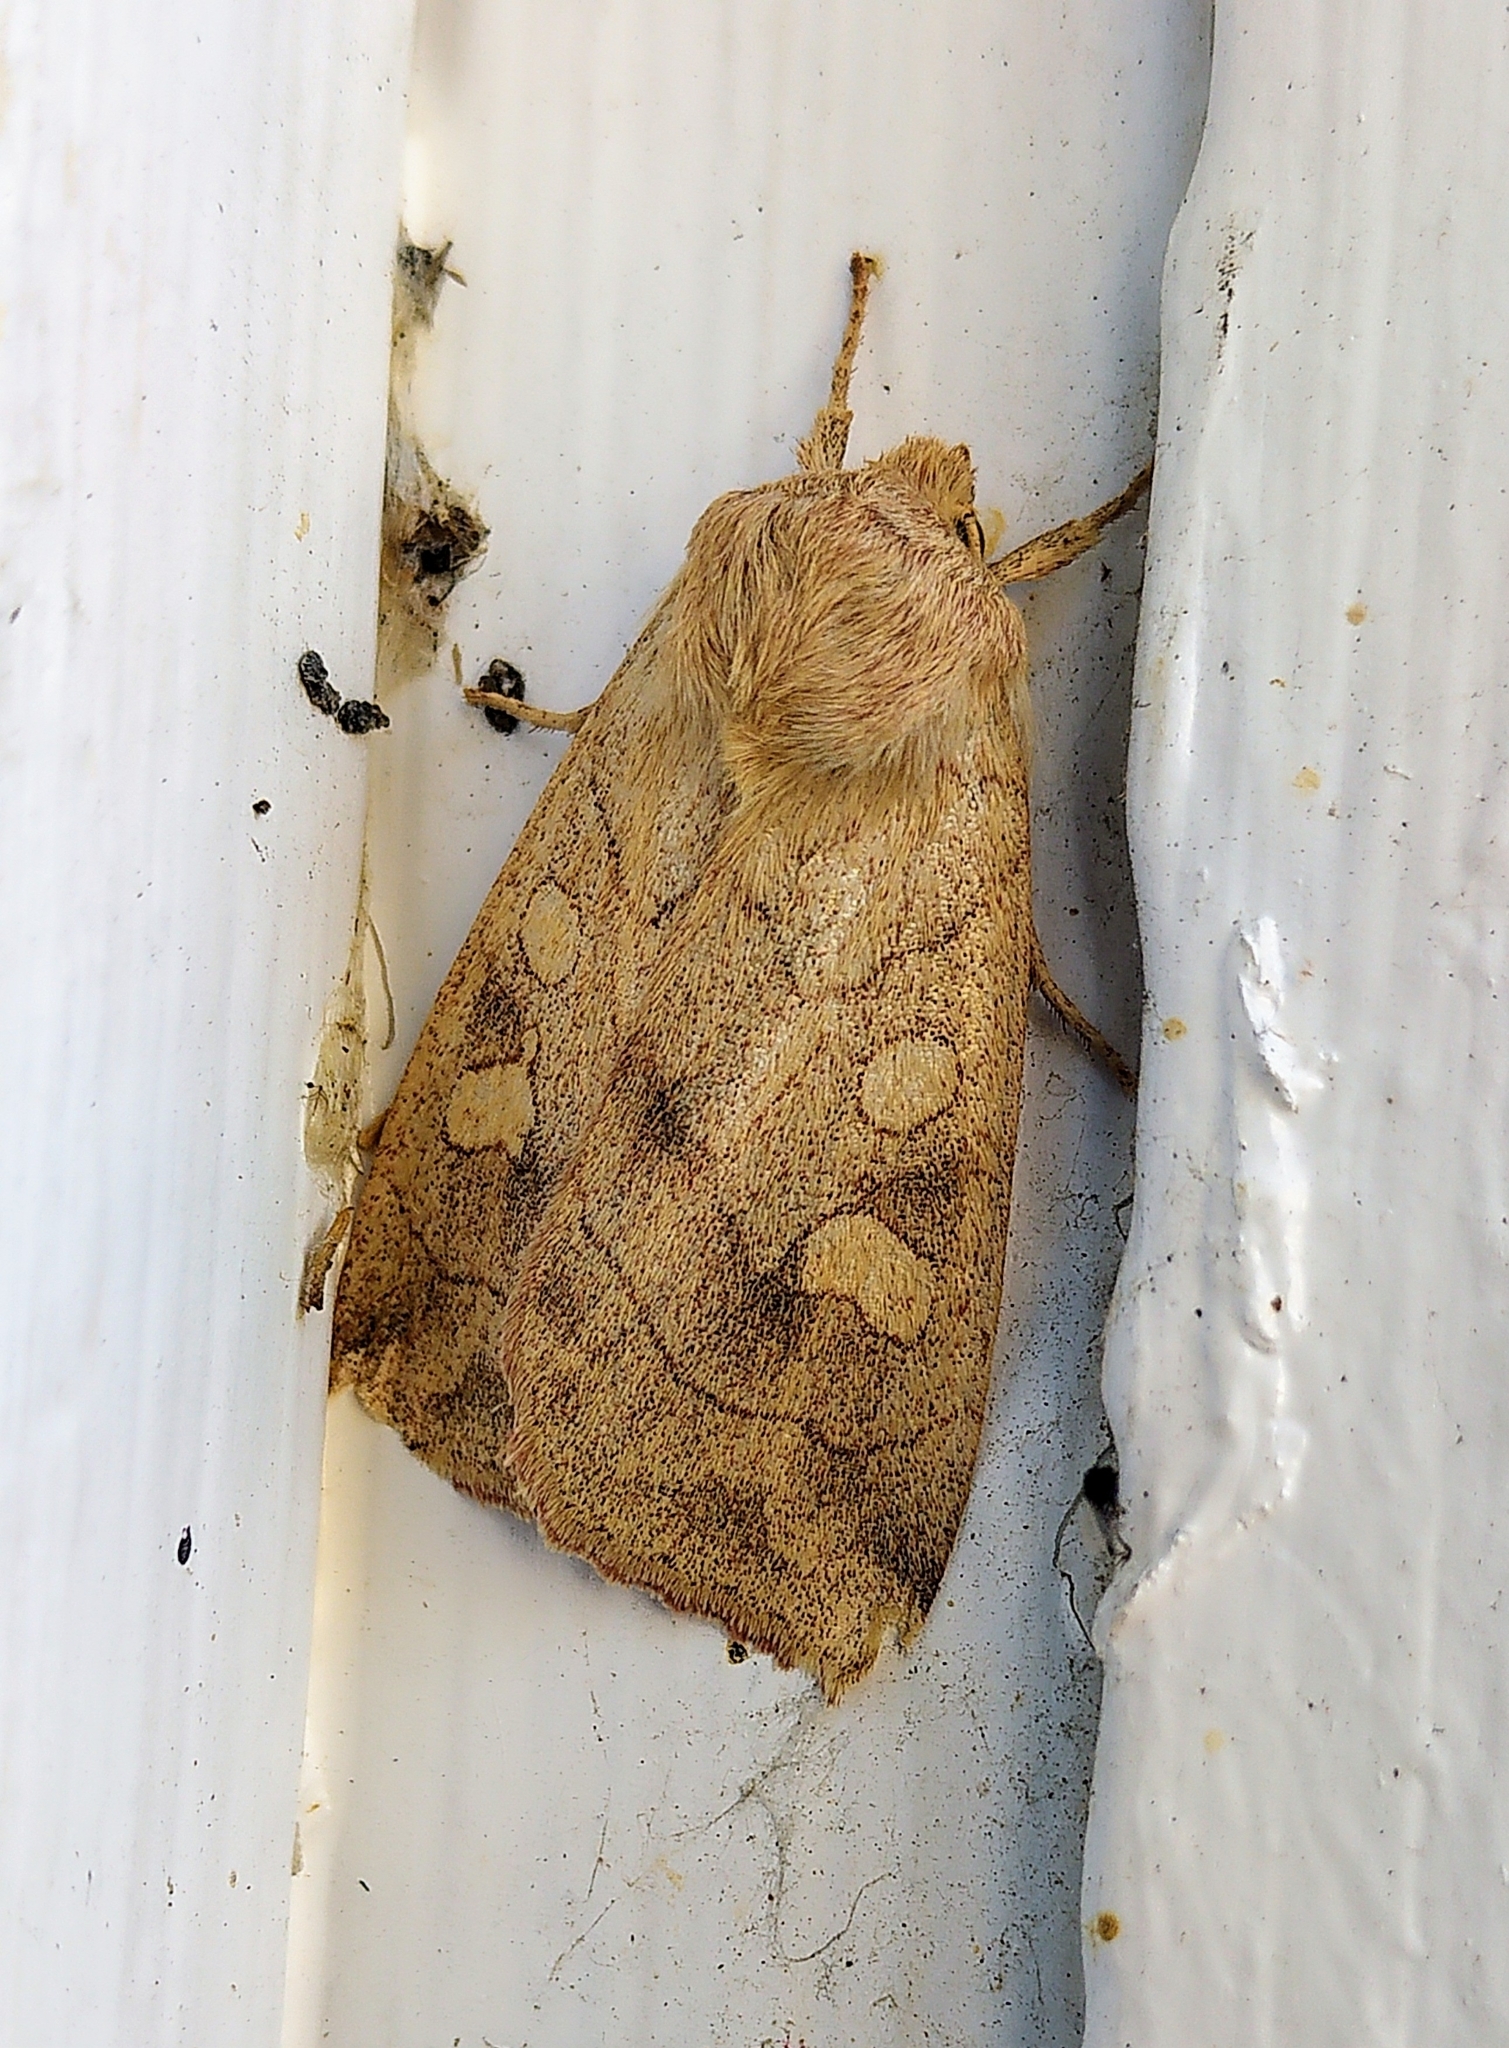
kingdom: Animalia
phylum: Arthropoda
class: Insecta
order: Lepidoptera
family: Noctuidae
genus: Enargia
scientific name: Enargia decolor
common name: Aspen twoleaf tier moth
